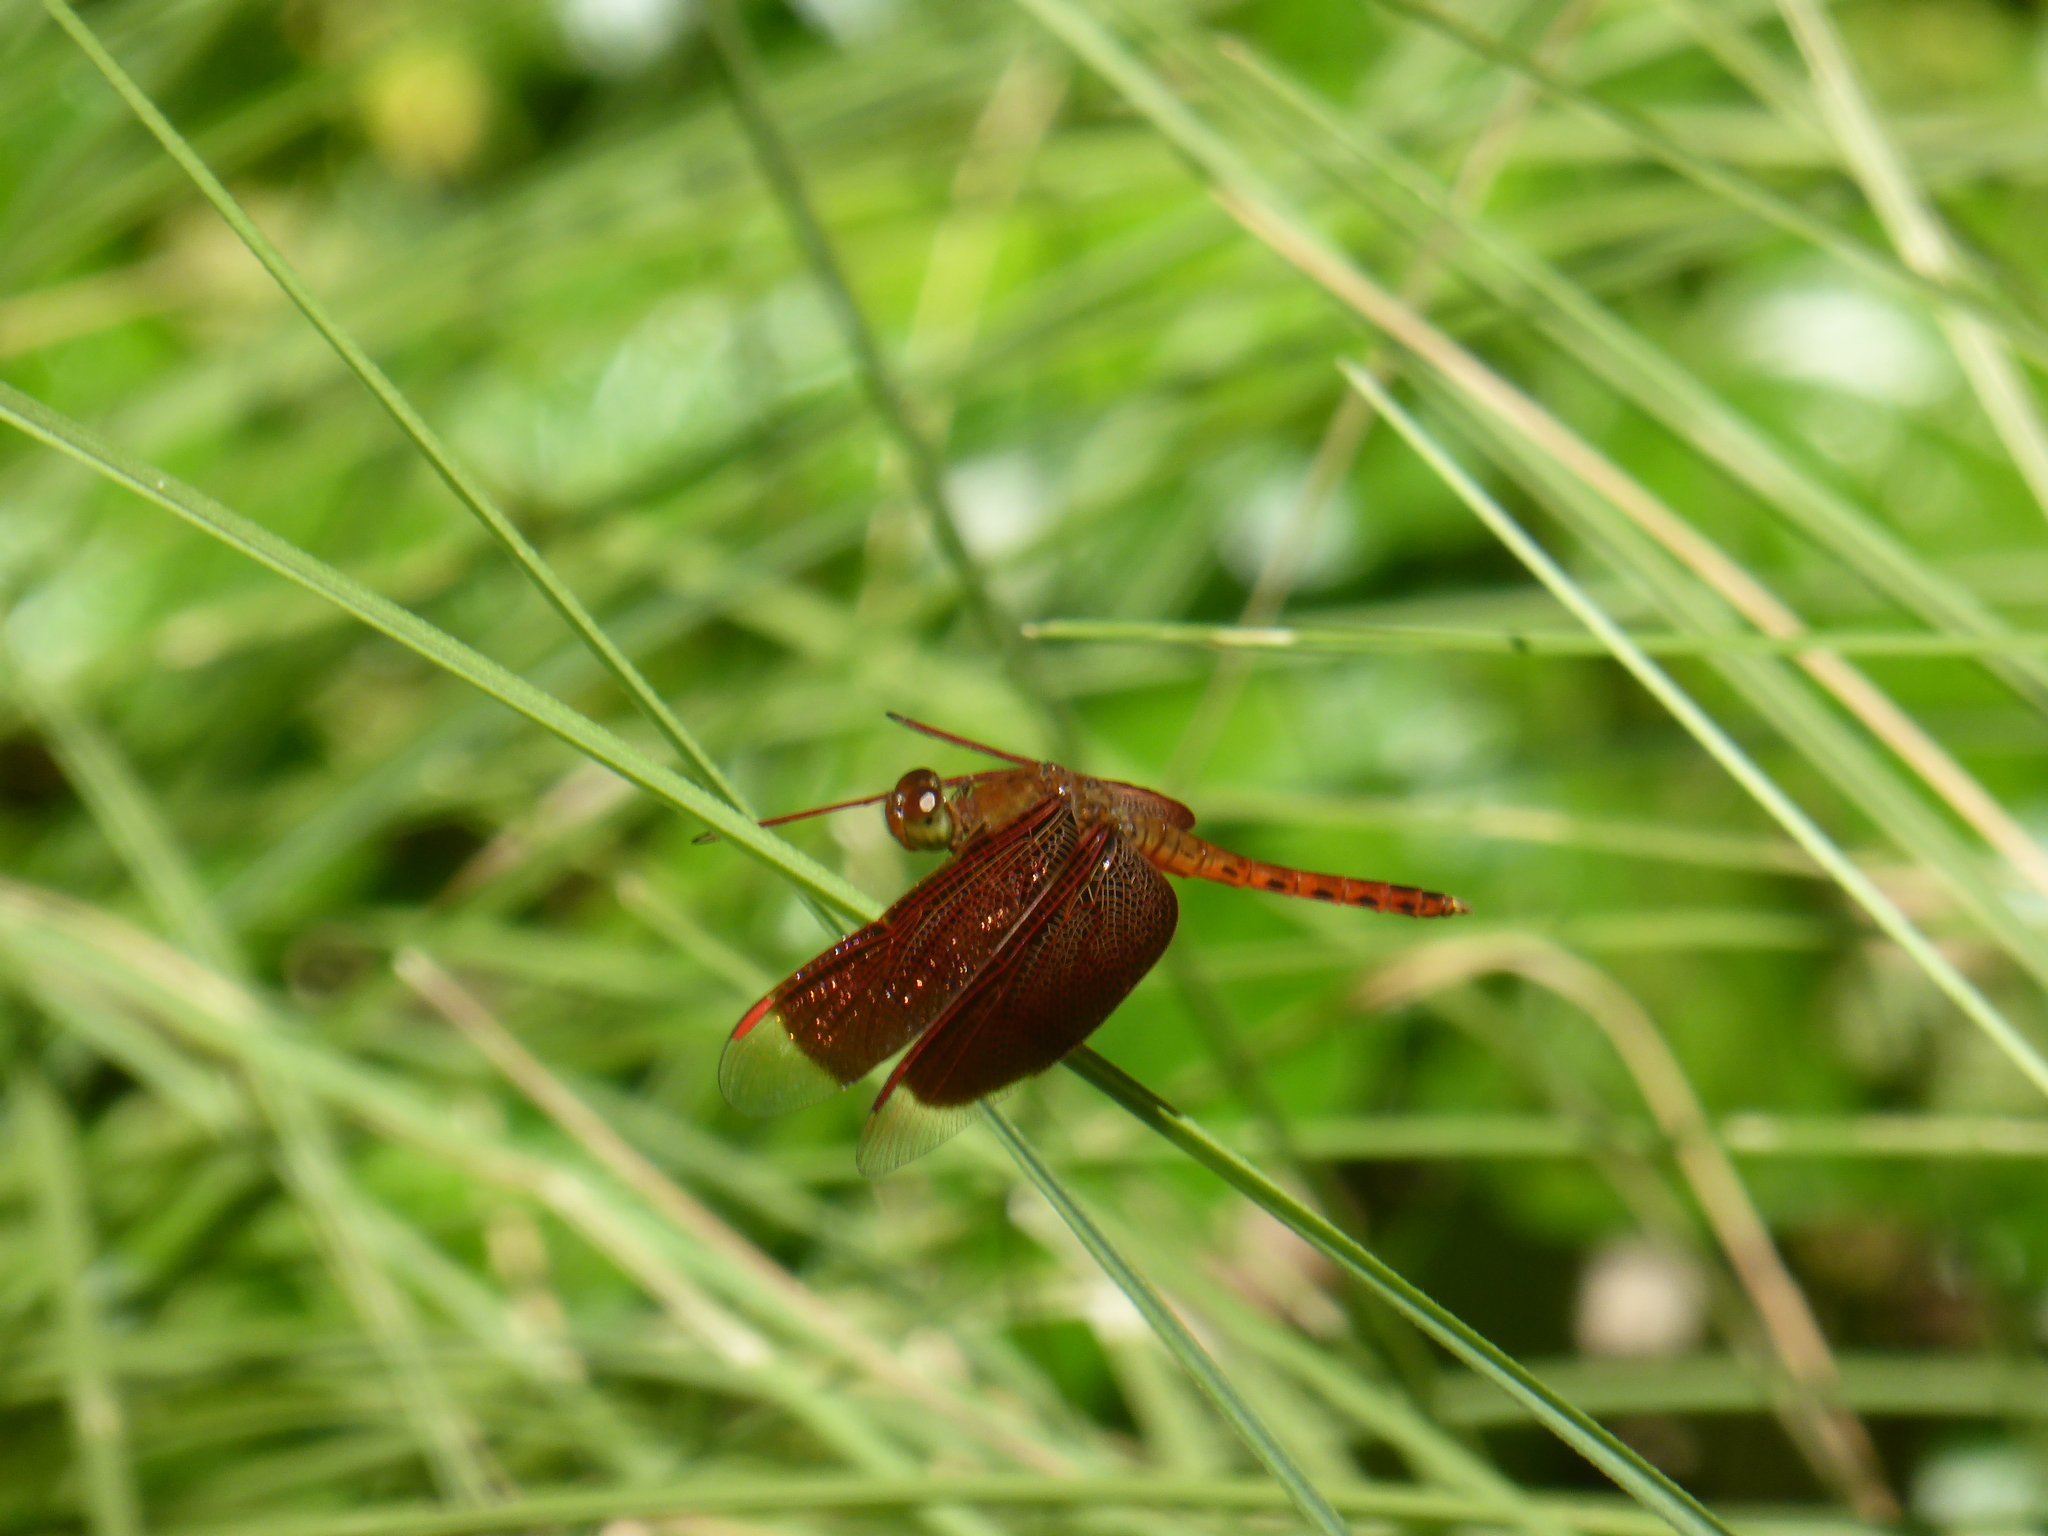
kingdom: Animalia
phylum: Arthropoda
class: Insecta
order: Odonata
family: Libellulidae
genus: Neurothemis
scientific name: Neurothemis fluctuans
